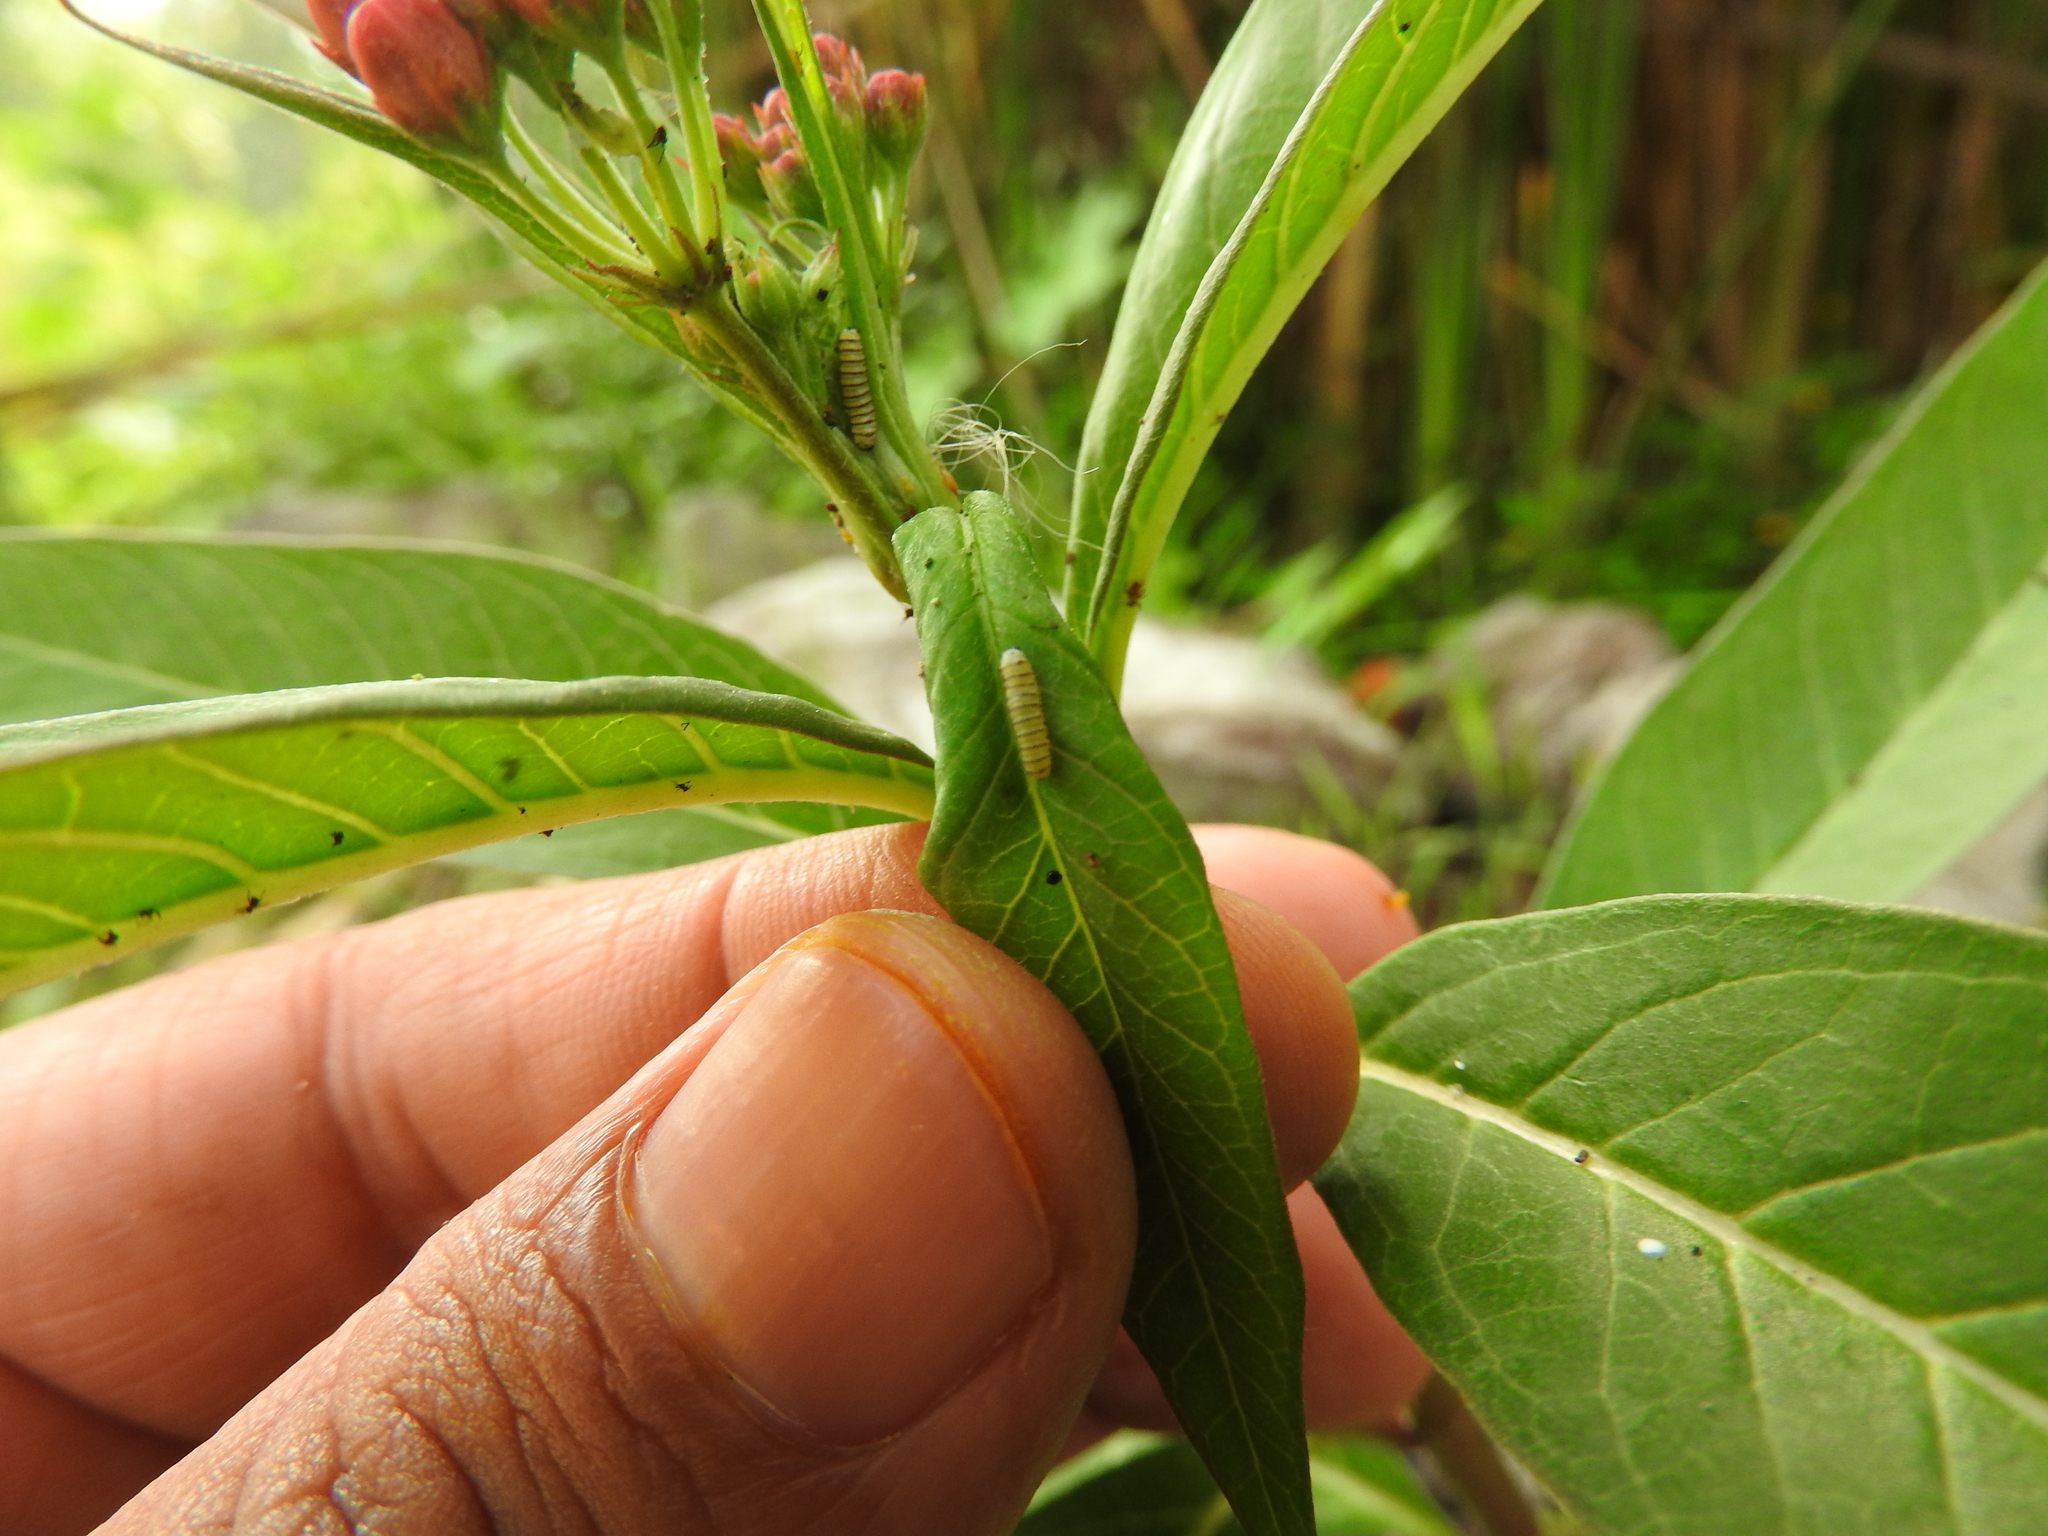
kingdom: Animalia
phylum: Arthropoda
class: Insecta
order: Lepidoptera
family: Nymphalidae
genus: Danaus
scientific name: Danaus plexippus
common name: Monarch
